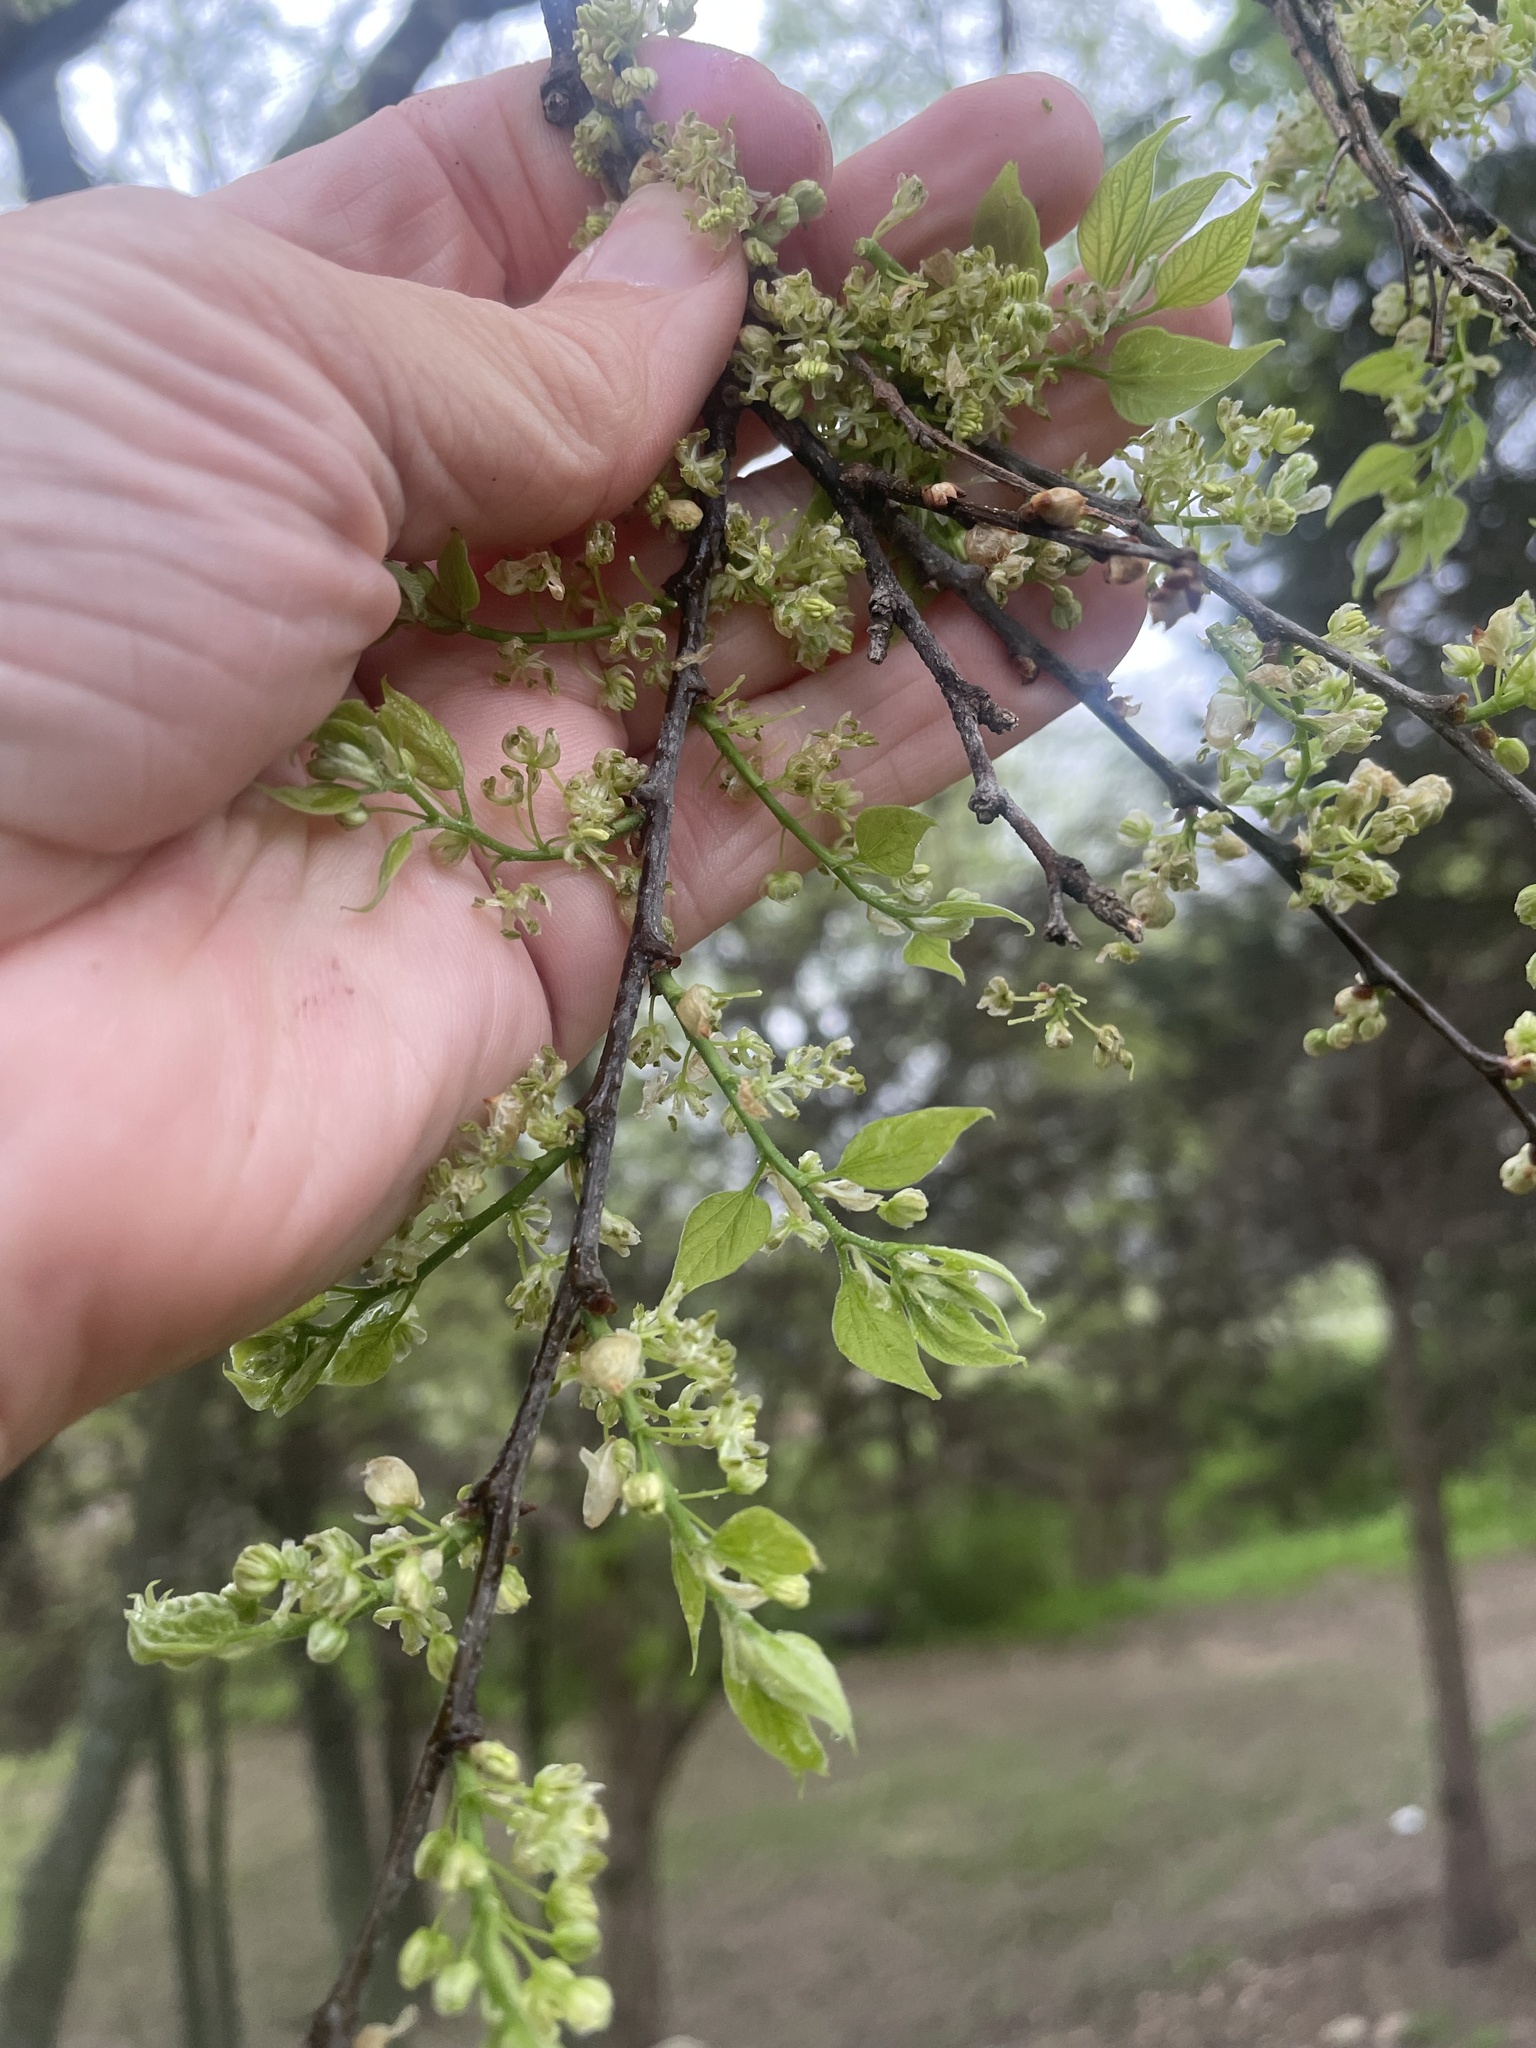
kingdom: Plantae
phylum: Tracheophyta
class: Magnoliopsida
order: Rosales
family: Cannabaceae
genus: Celtis
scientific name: Celtis laevigata
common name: Sugarberry
